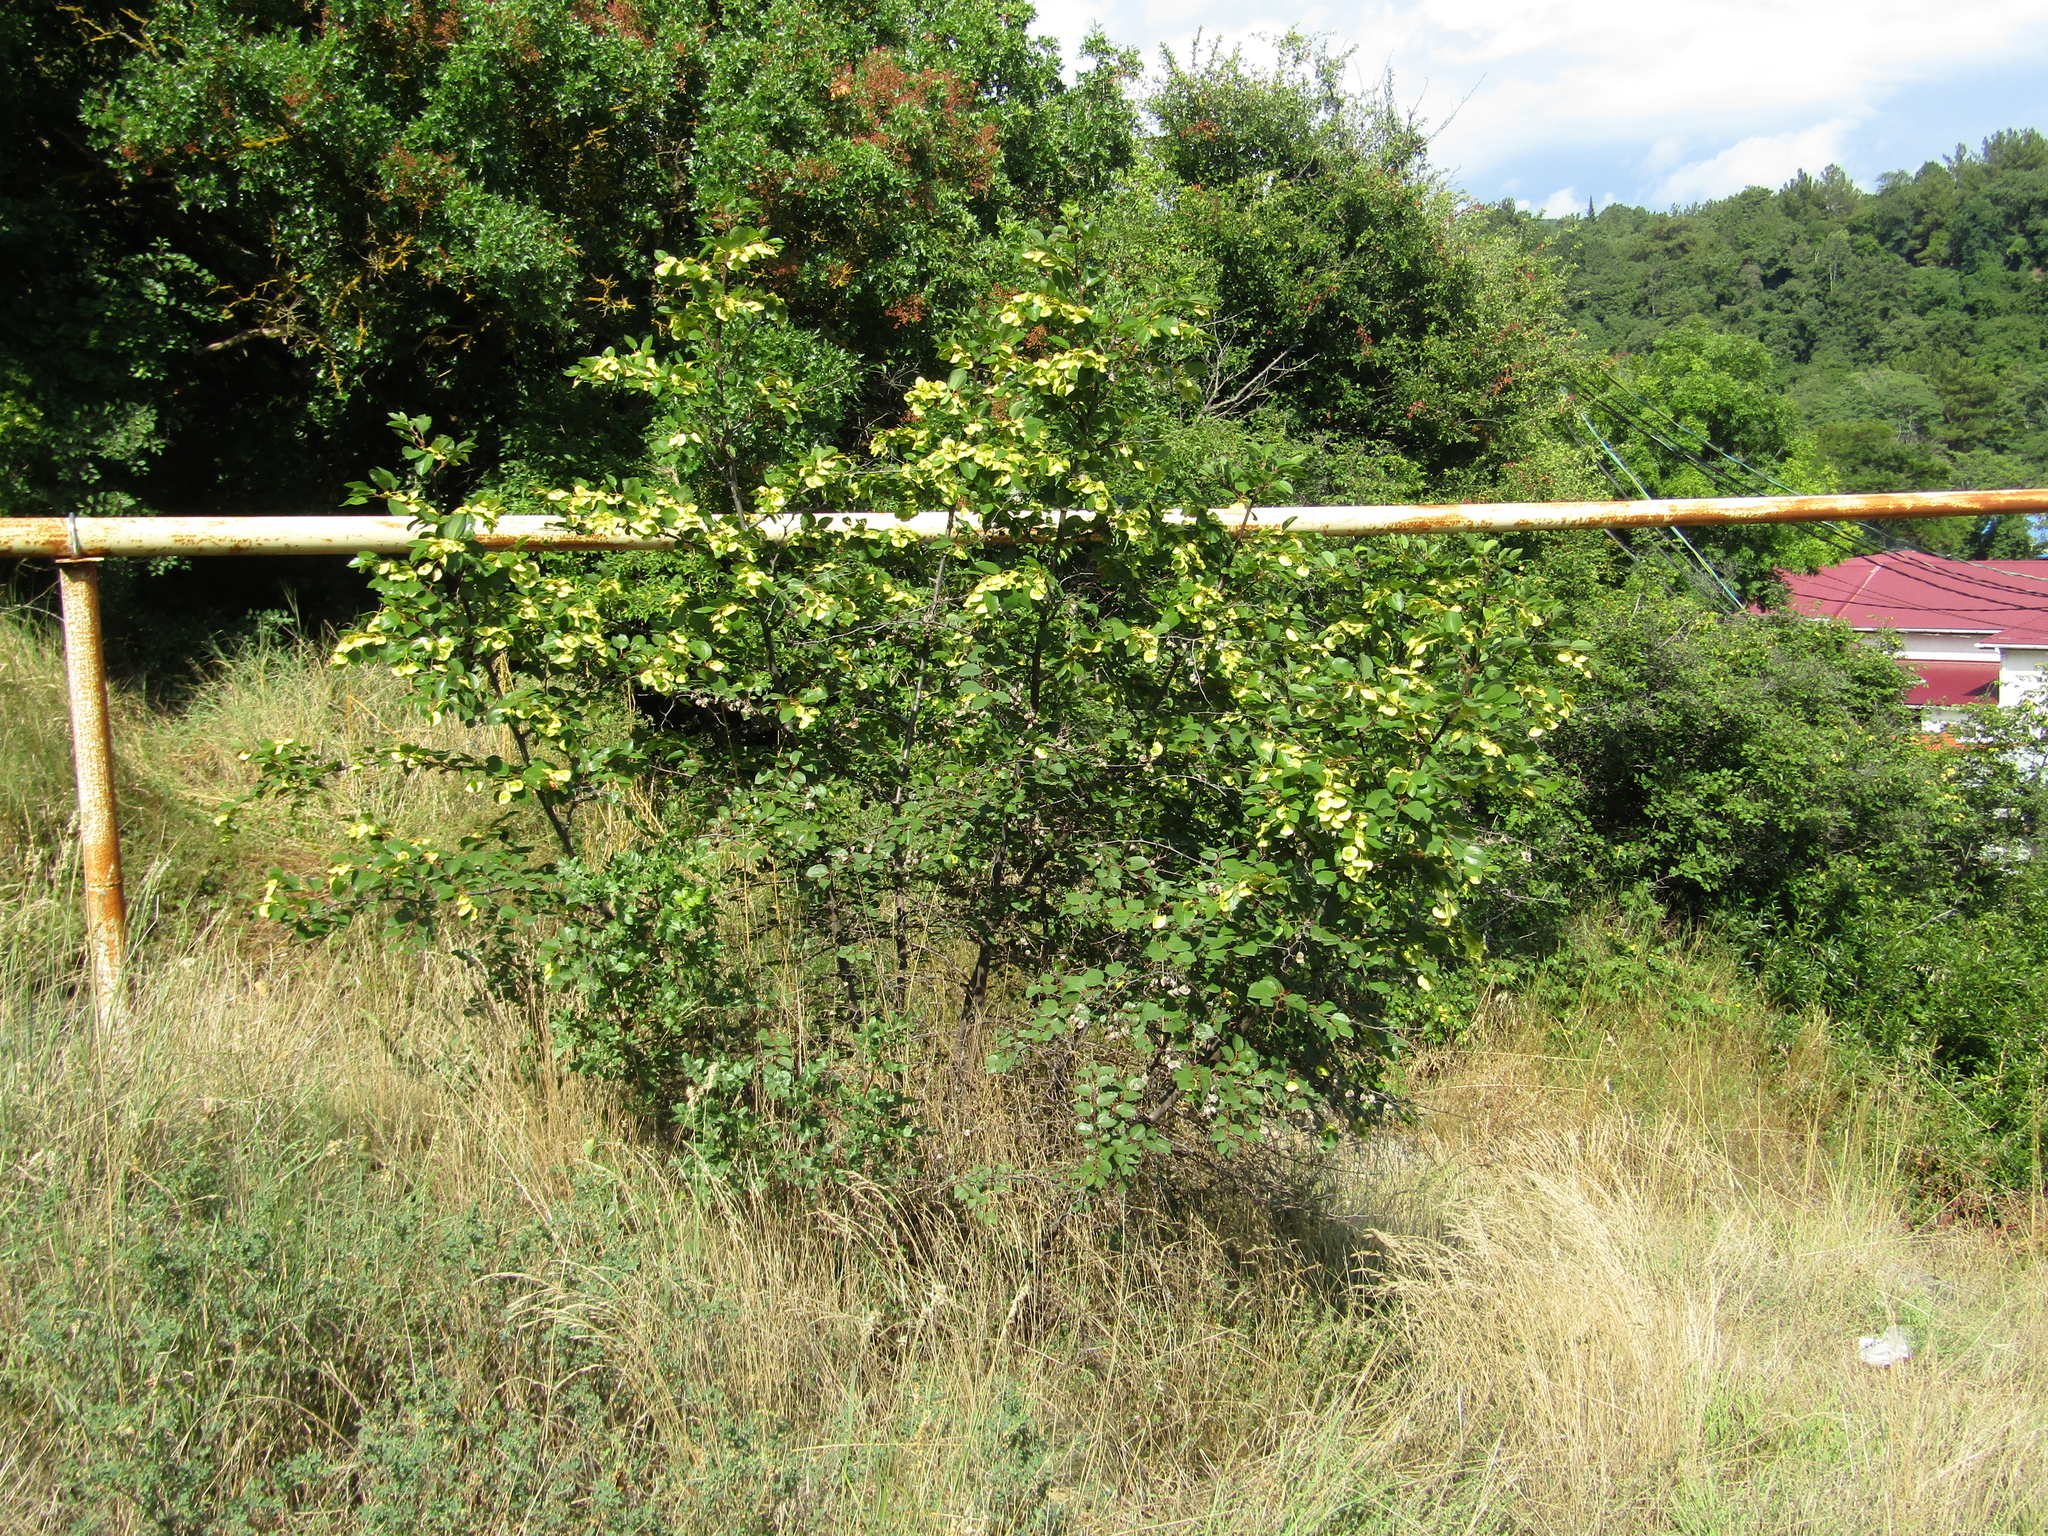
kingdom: Plantae
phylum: Tracheophyta
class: Magnoliopsida
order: Rosales
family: Rhamnaceae
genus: Paliurus
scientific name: Paliurus spina-christi
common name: Jeruselem thorn
